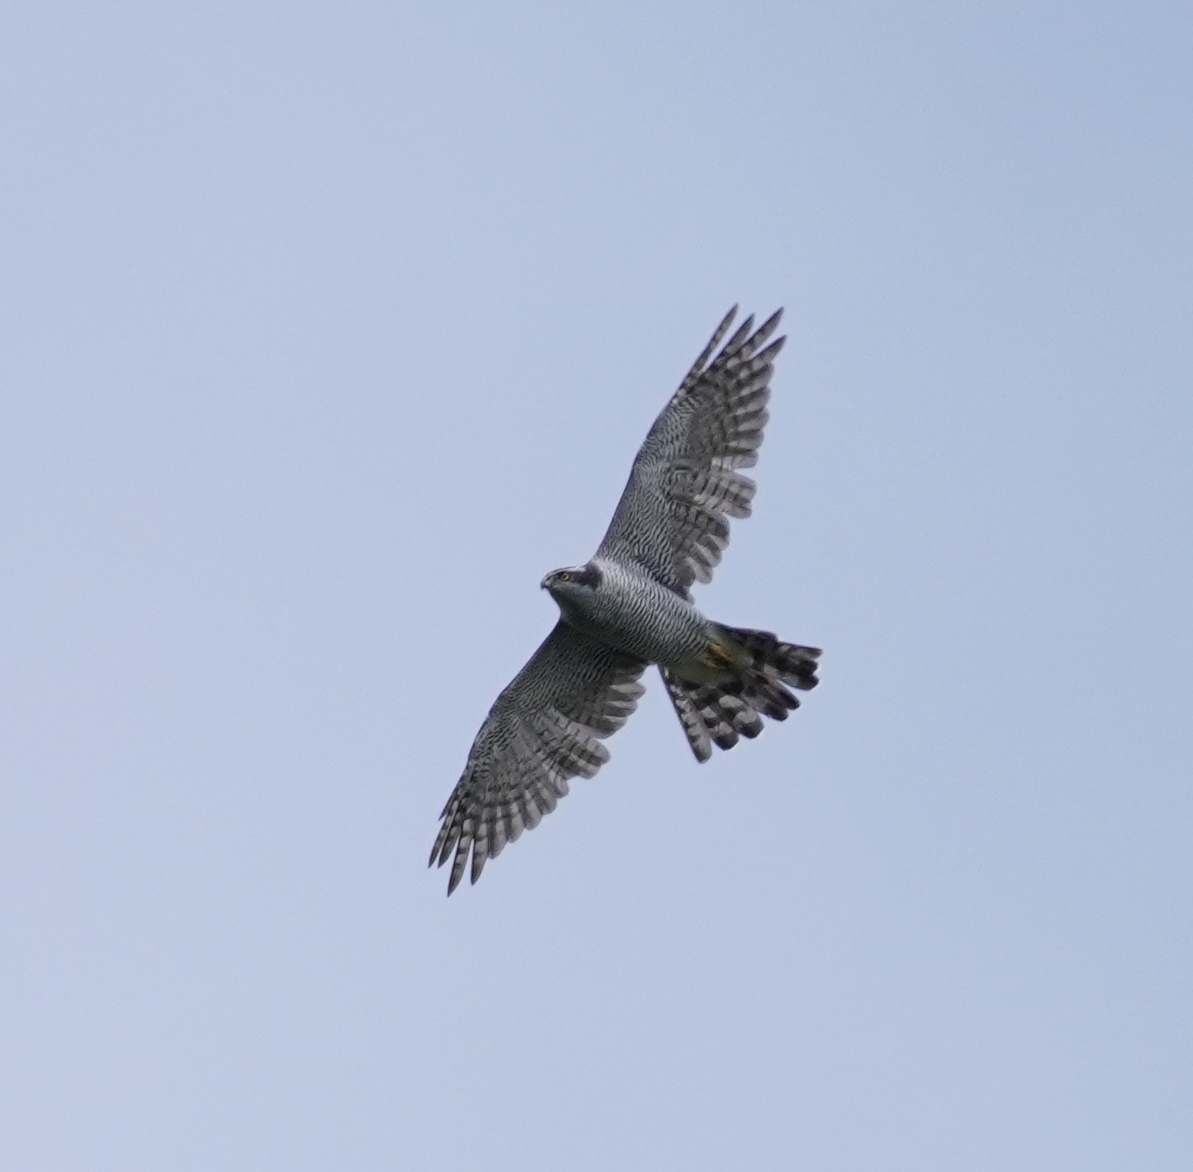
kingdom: Animalia
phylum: Chordata
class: Aves
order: Accipitriformes
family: Accipitridae
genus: Accipiter
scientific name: Accipiter gentilis
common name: Northern goshawk
